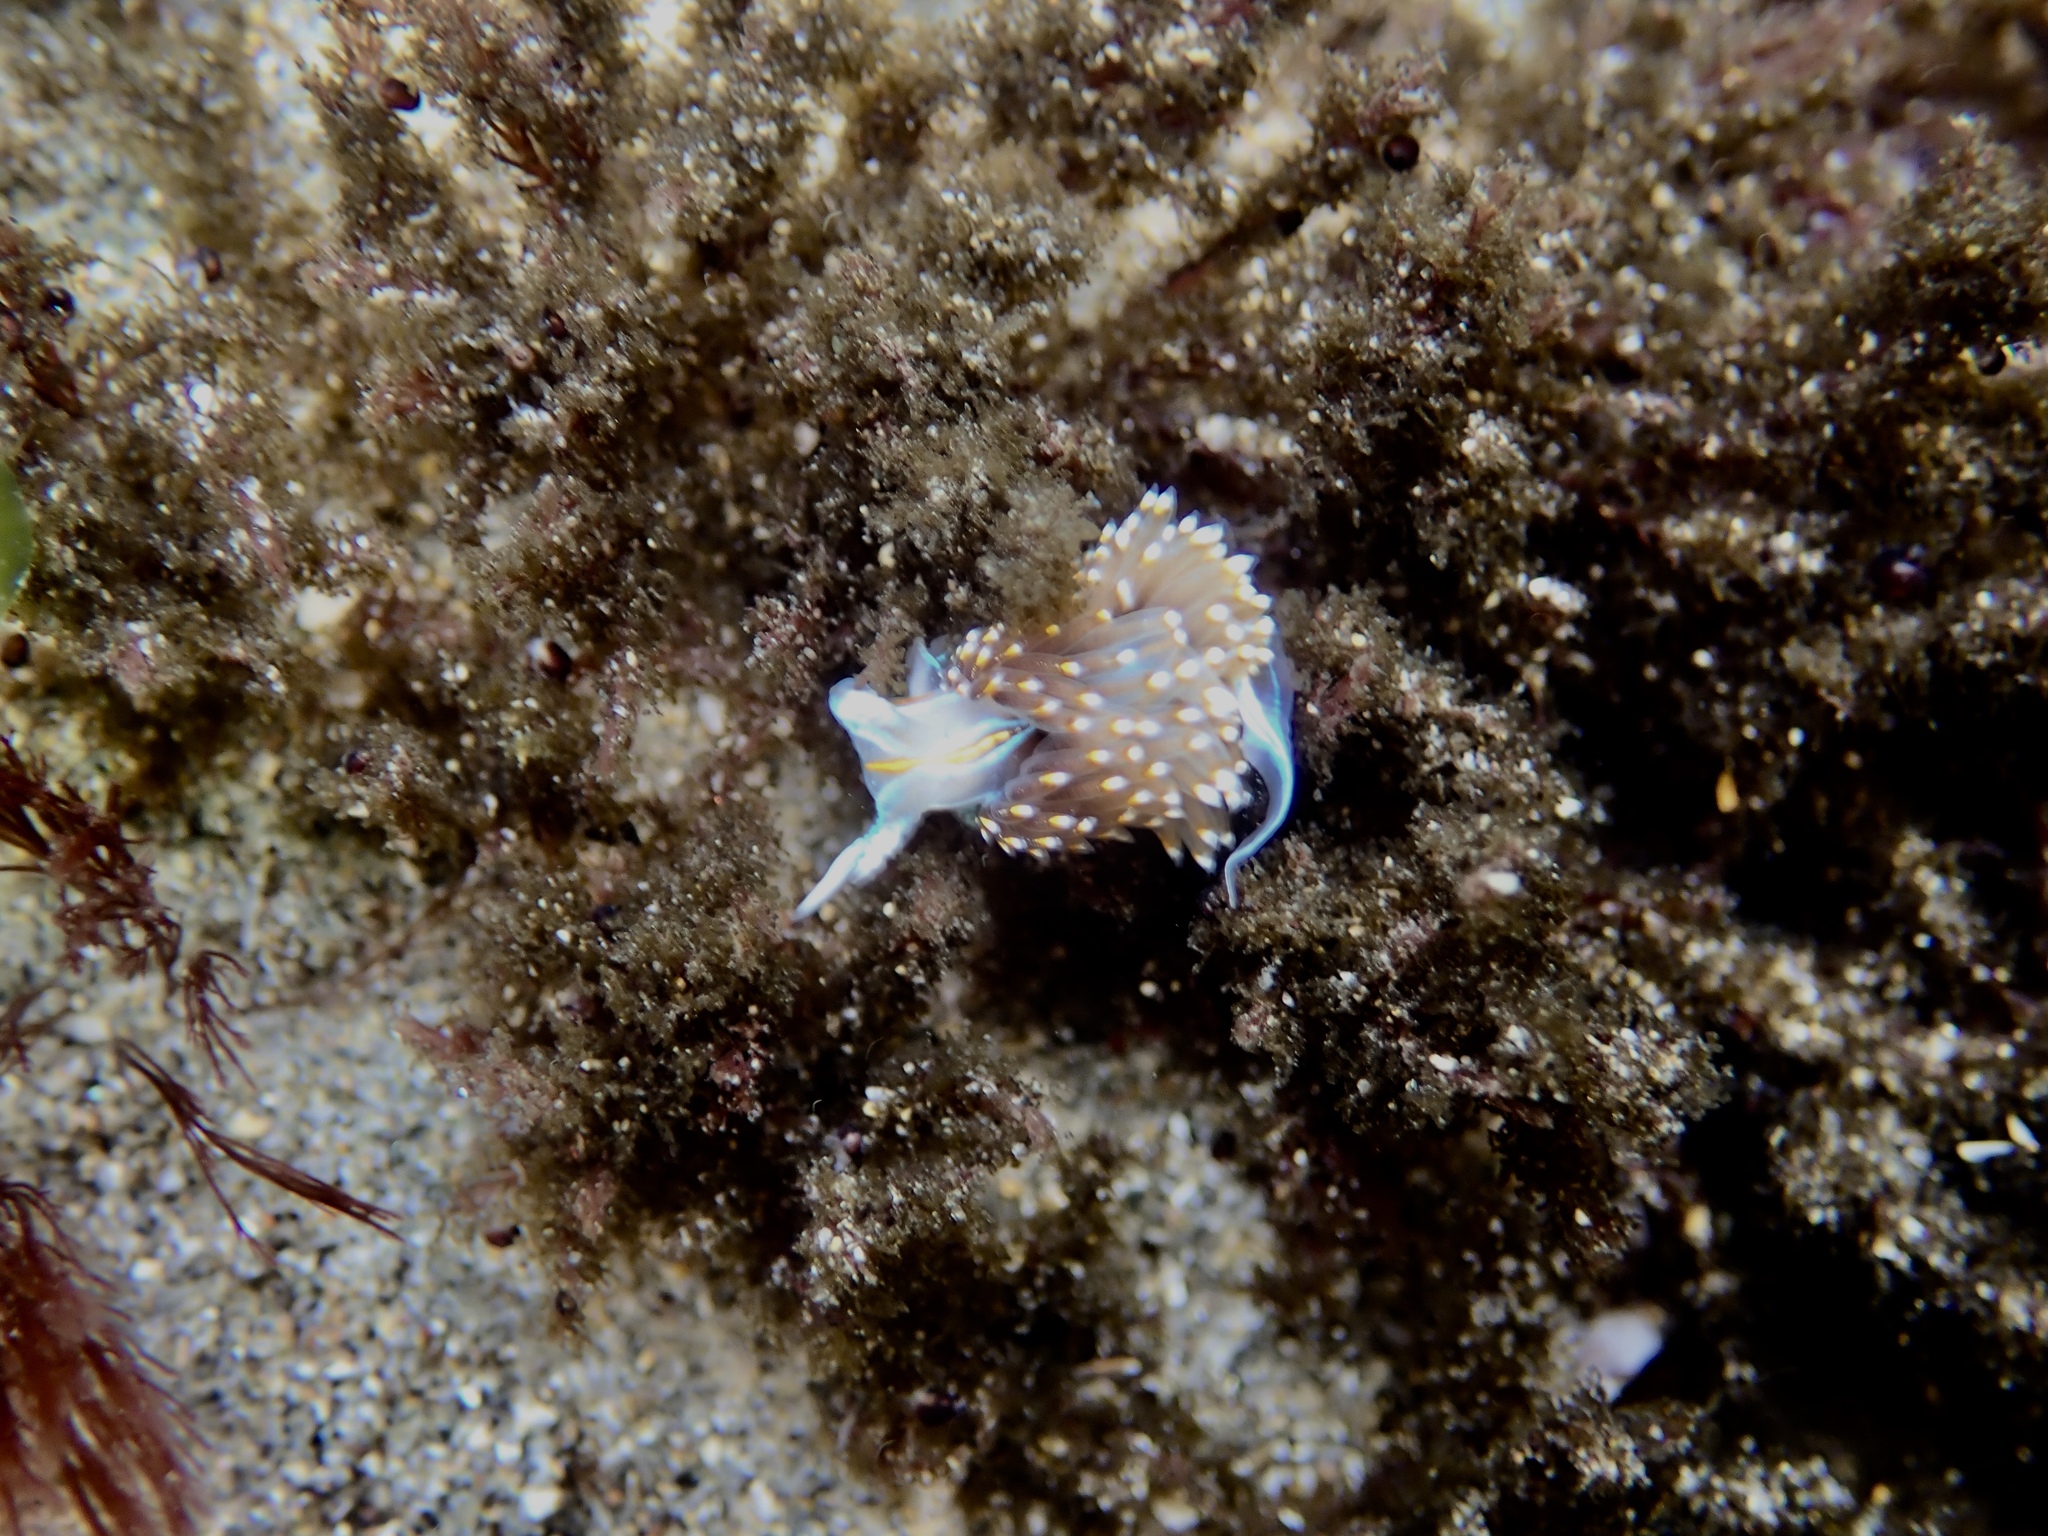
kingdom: Animalia
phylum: Mollusca
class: Gastropoda
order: Nudibranchia
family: Myrrhinidae
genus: Hermissenda
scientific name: Hermissenda opalescens
